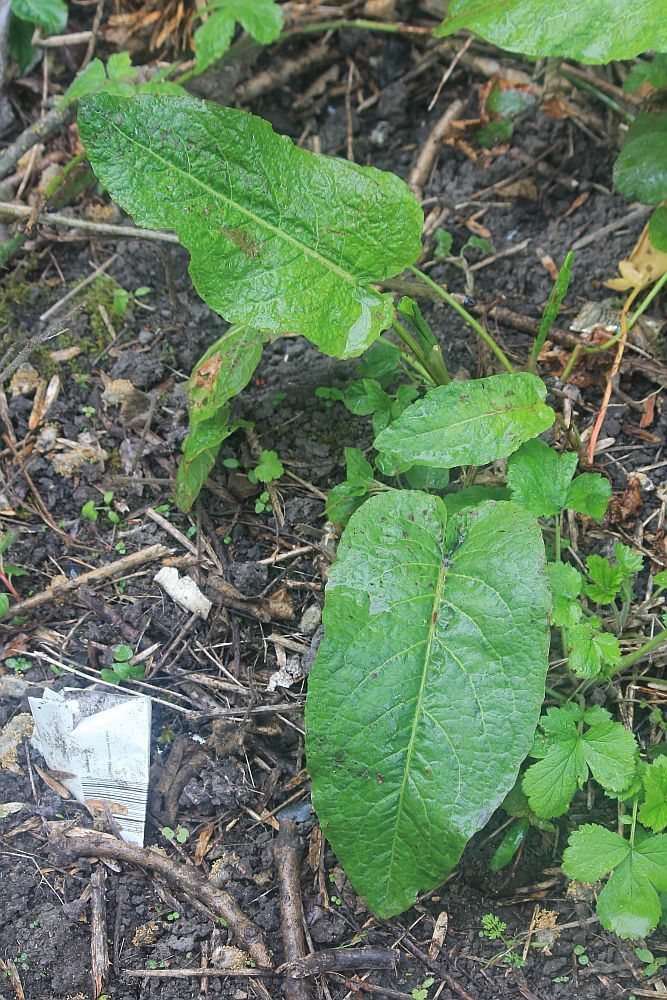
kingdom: Plantae
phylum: Tracheophyta
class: Magnoliopsida
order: Caryophyllales
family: Polygonaceae
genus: Rumex
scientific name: Rumex obtusifolius
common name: Bitter dock
